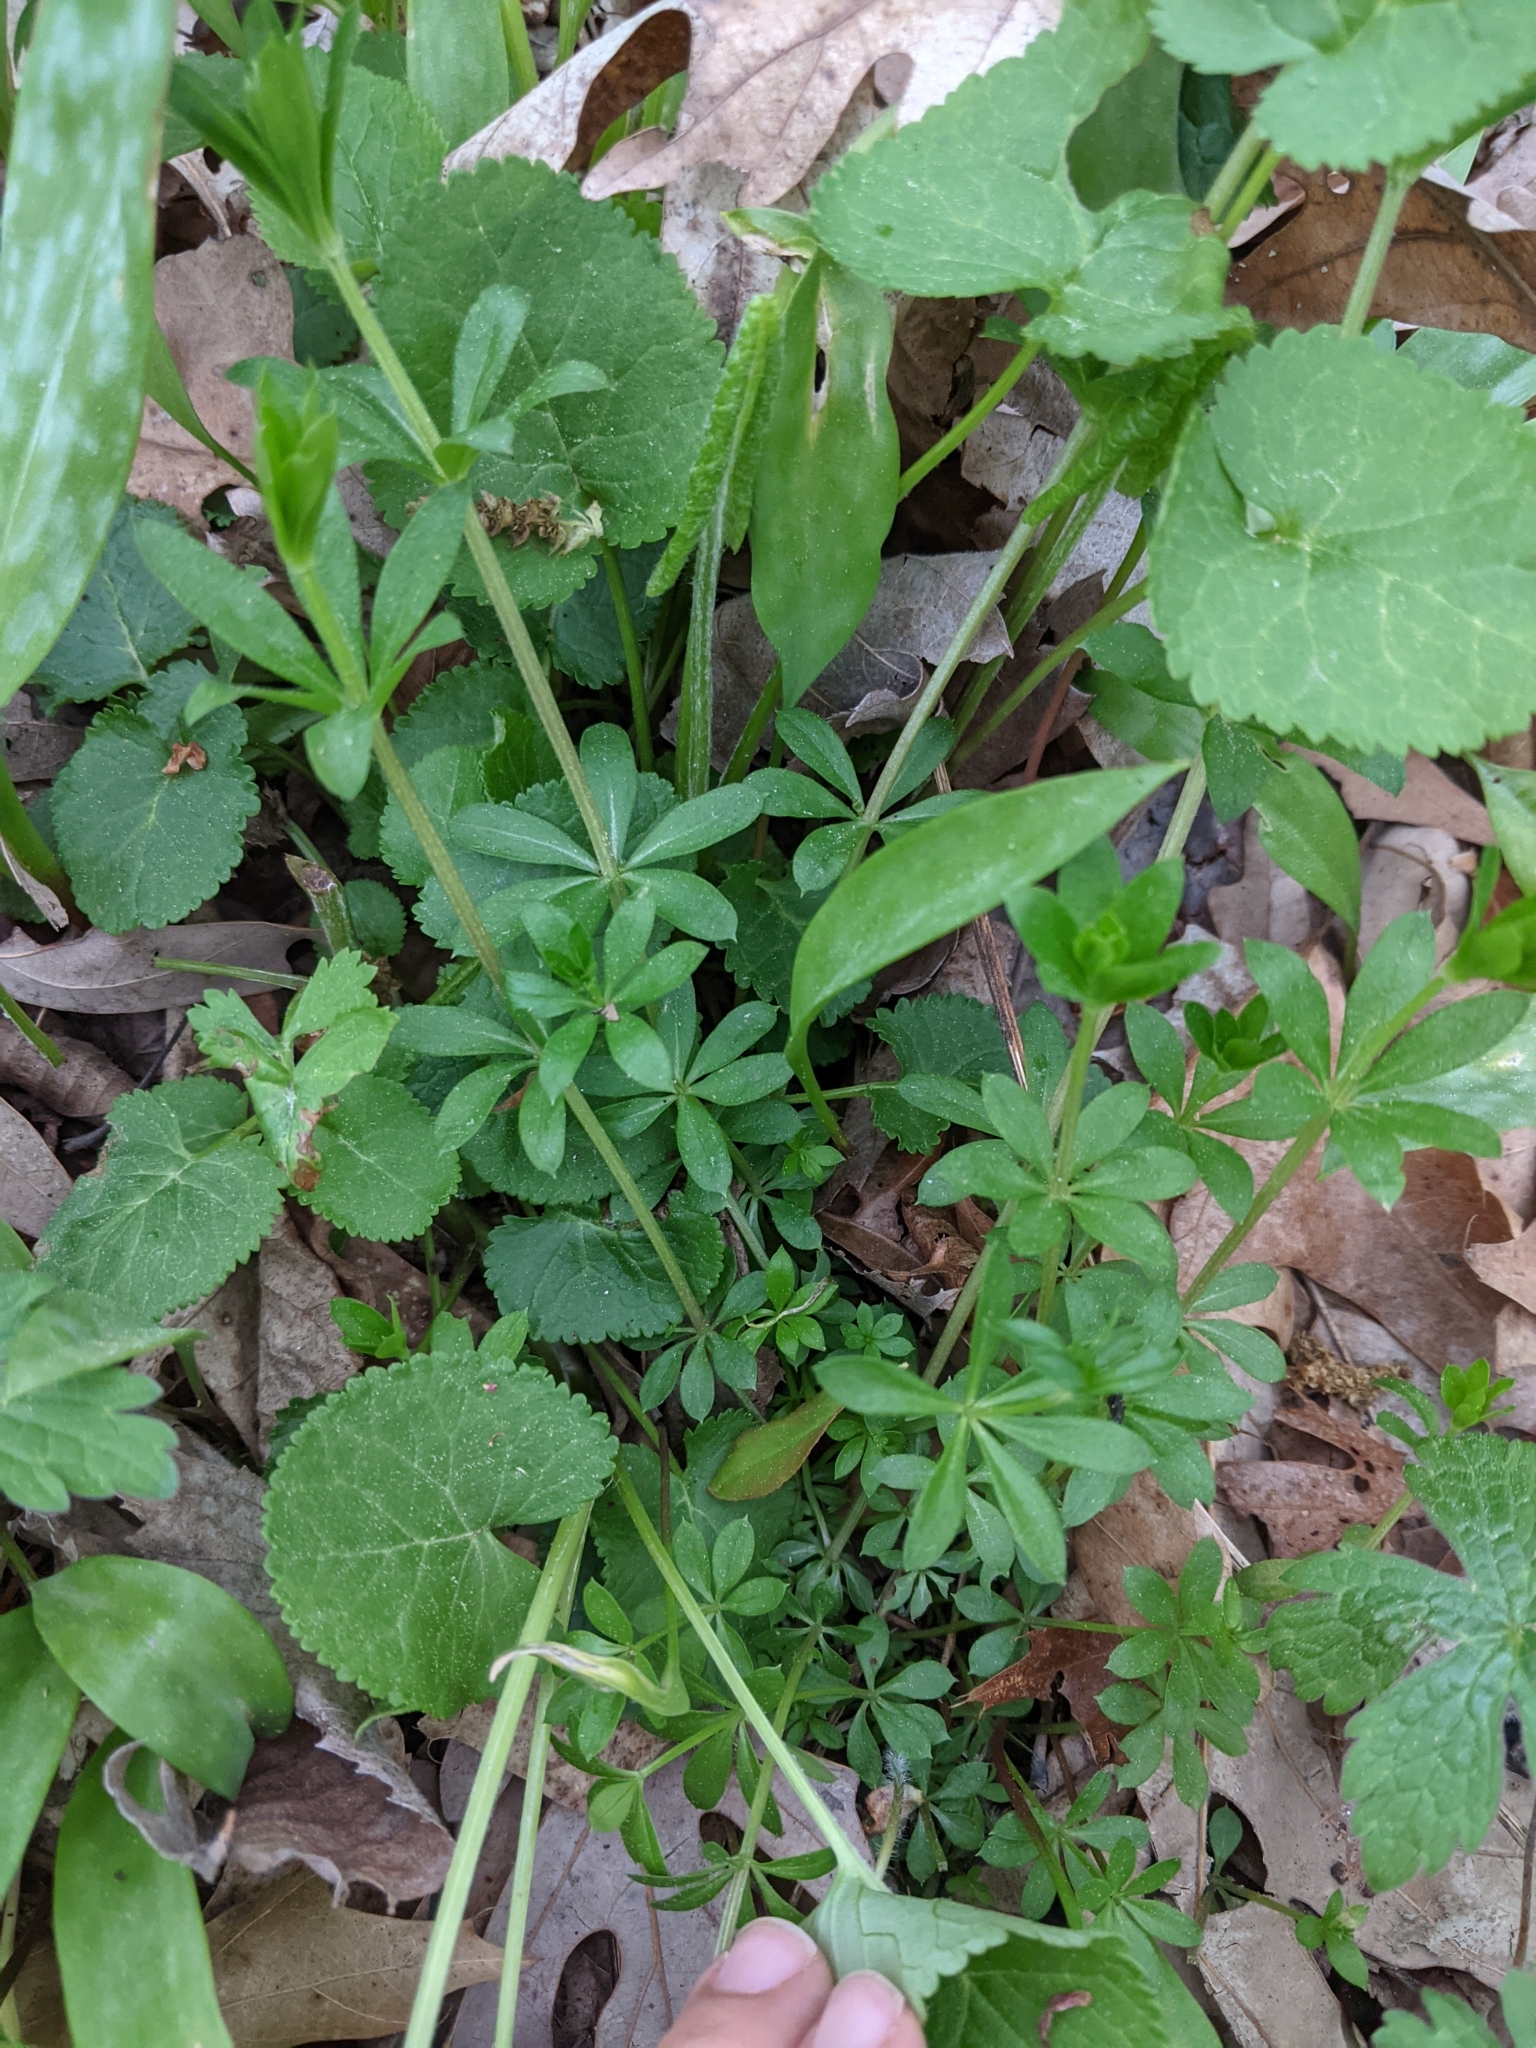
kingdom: Plantae
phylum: Tracheophyta
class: Magnoliopsida
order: Gentianales
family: Rubiaceae
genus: Galium
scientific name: Galium triflorum
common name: Fragrant bedstraw
